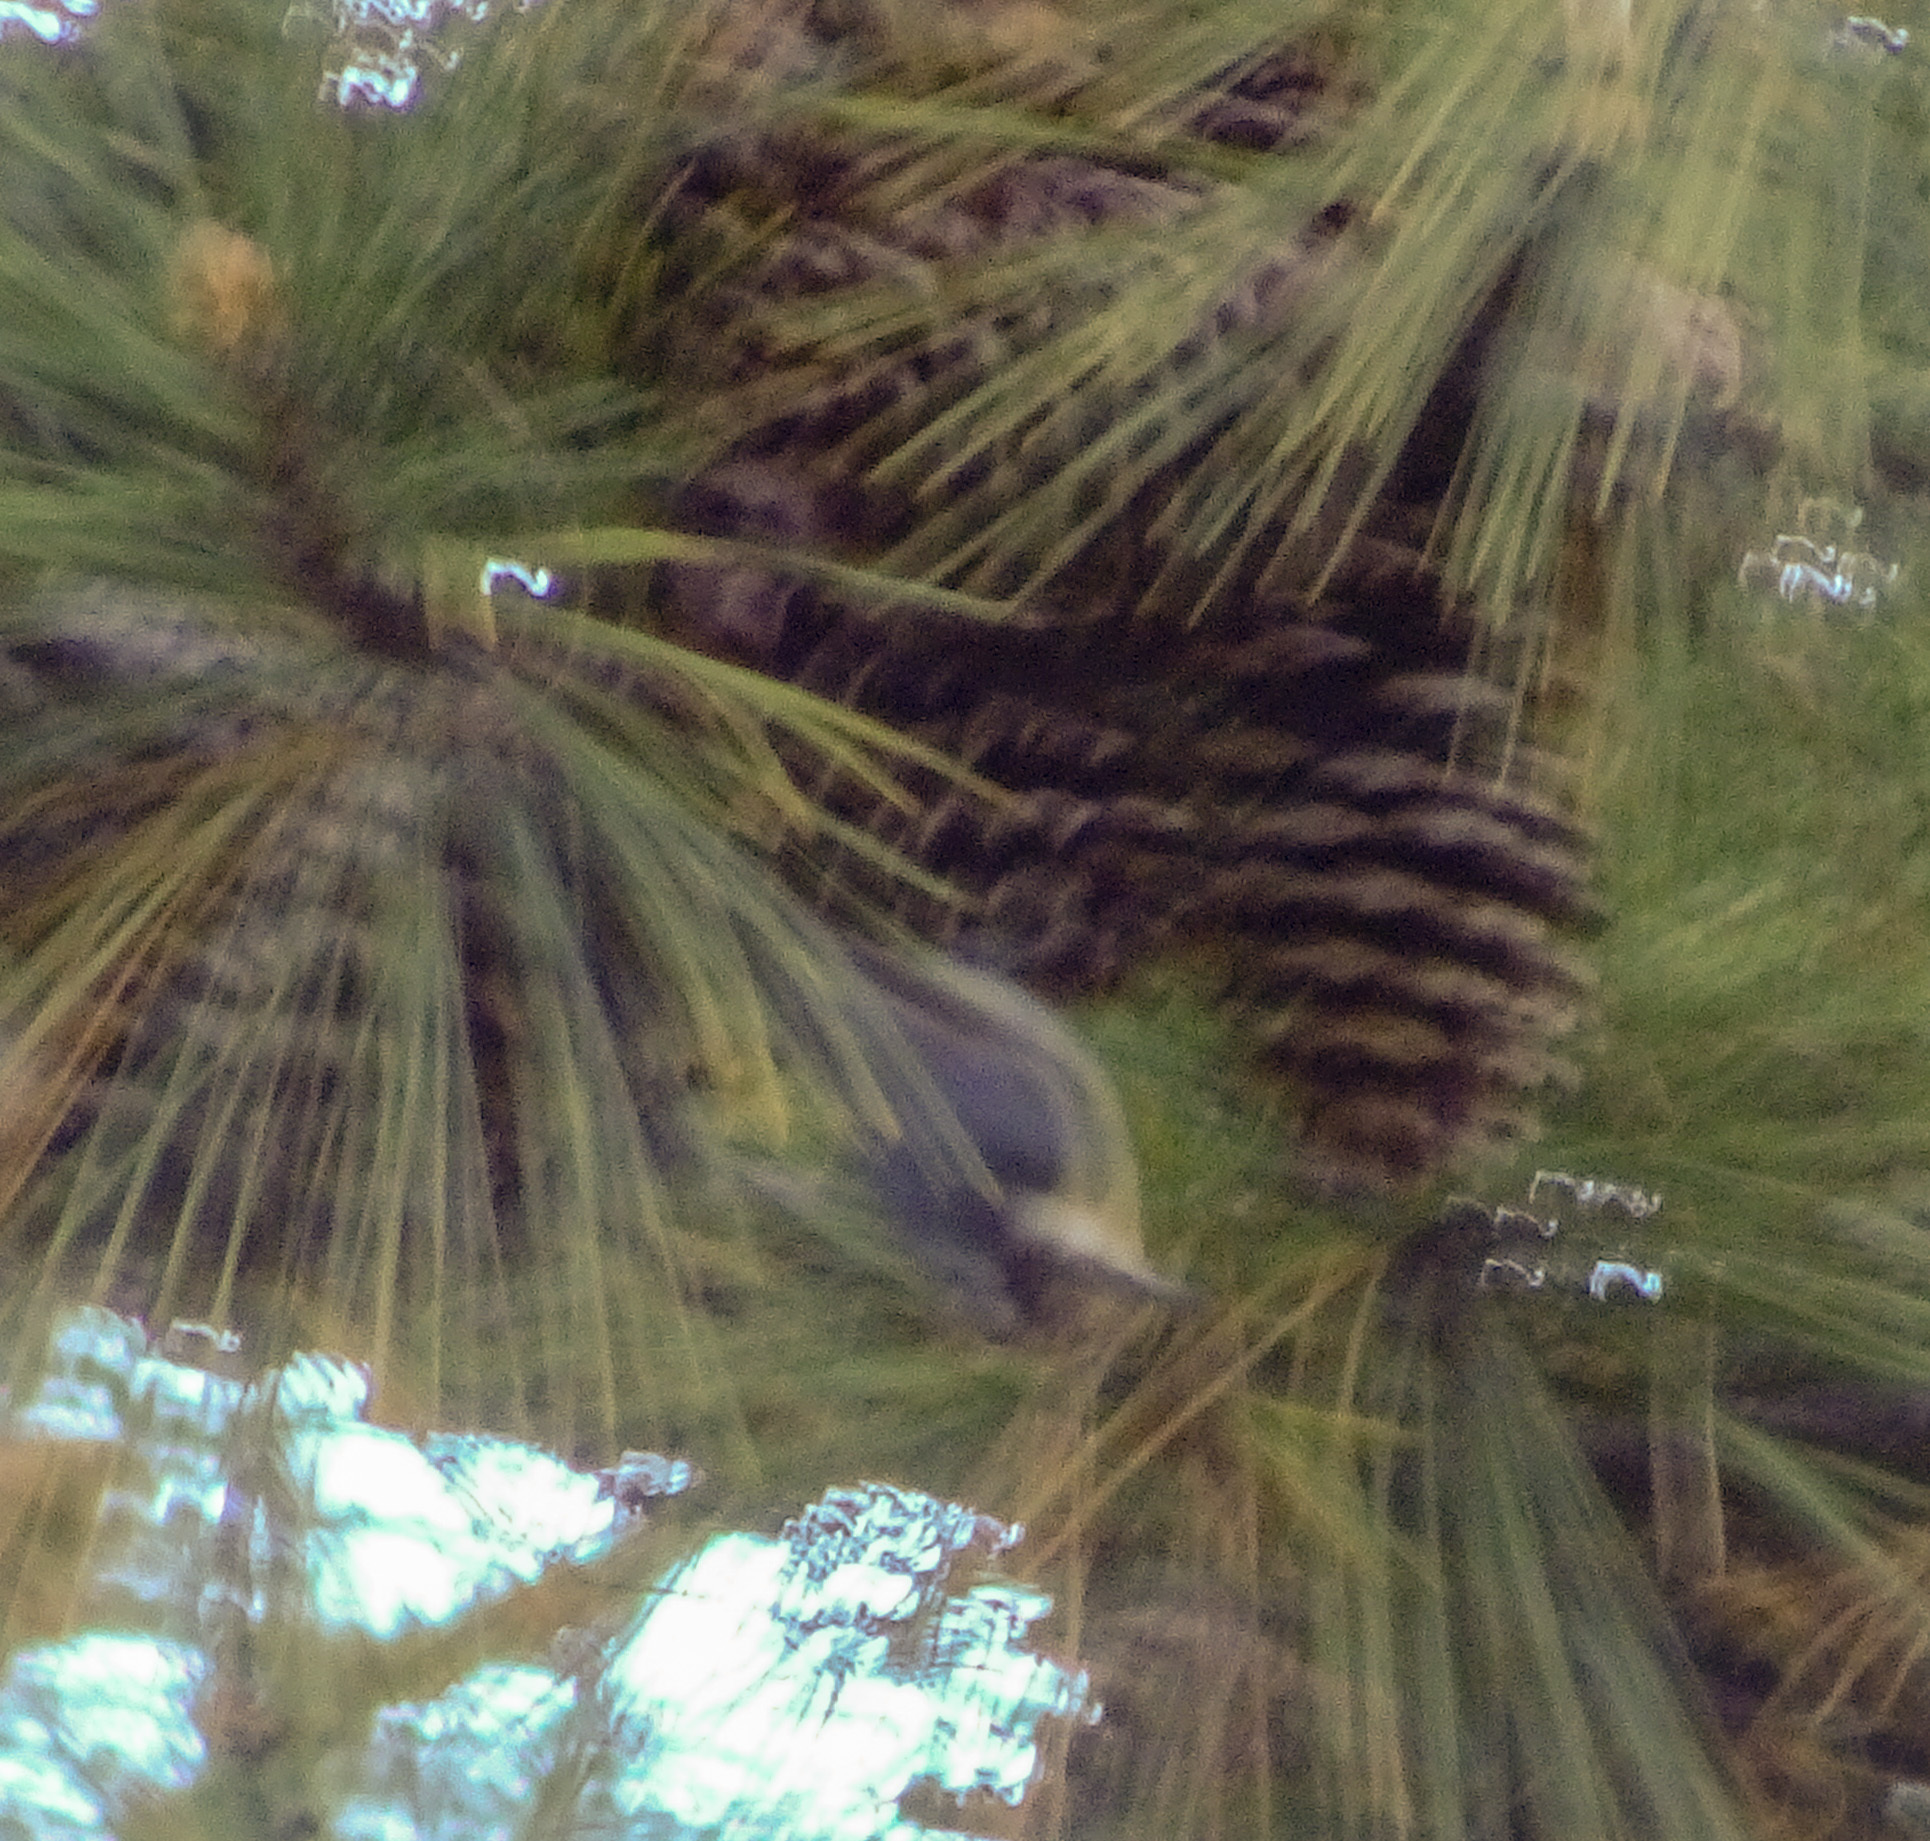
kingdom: Animalia
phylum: Chordata
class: Aves
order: Passeriformes
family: Sittidae
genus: Sitta
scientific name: Sitta pusilla
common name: Brown-headed nuthatch
